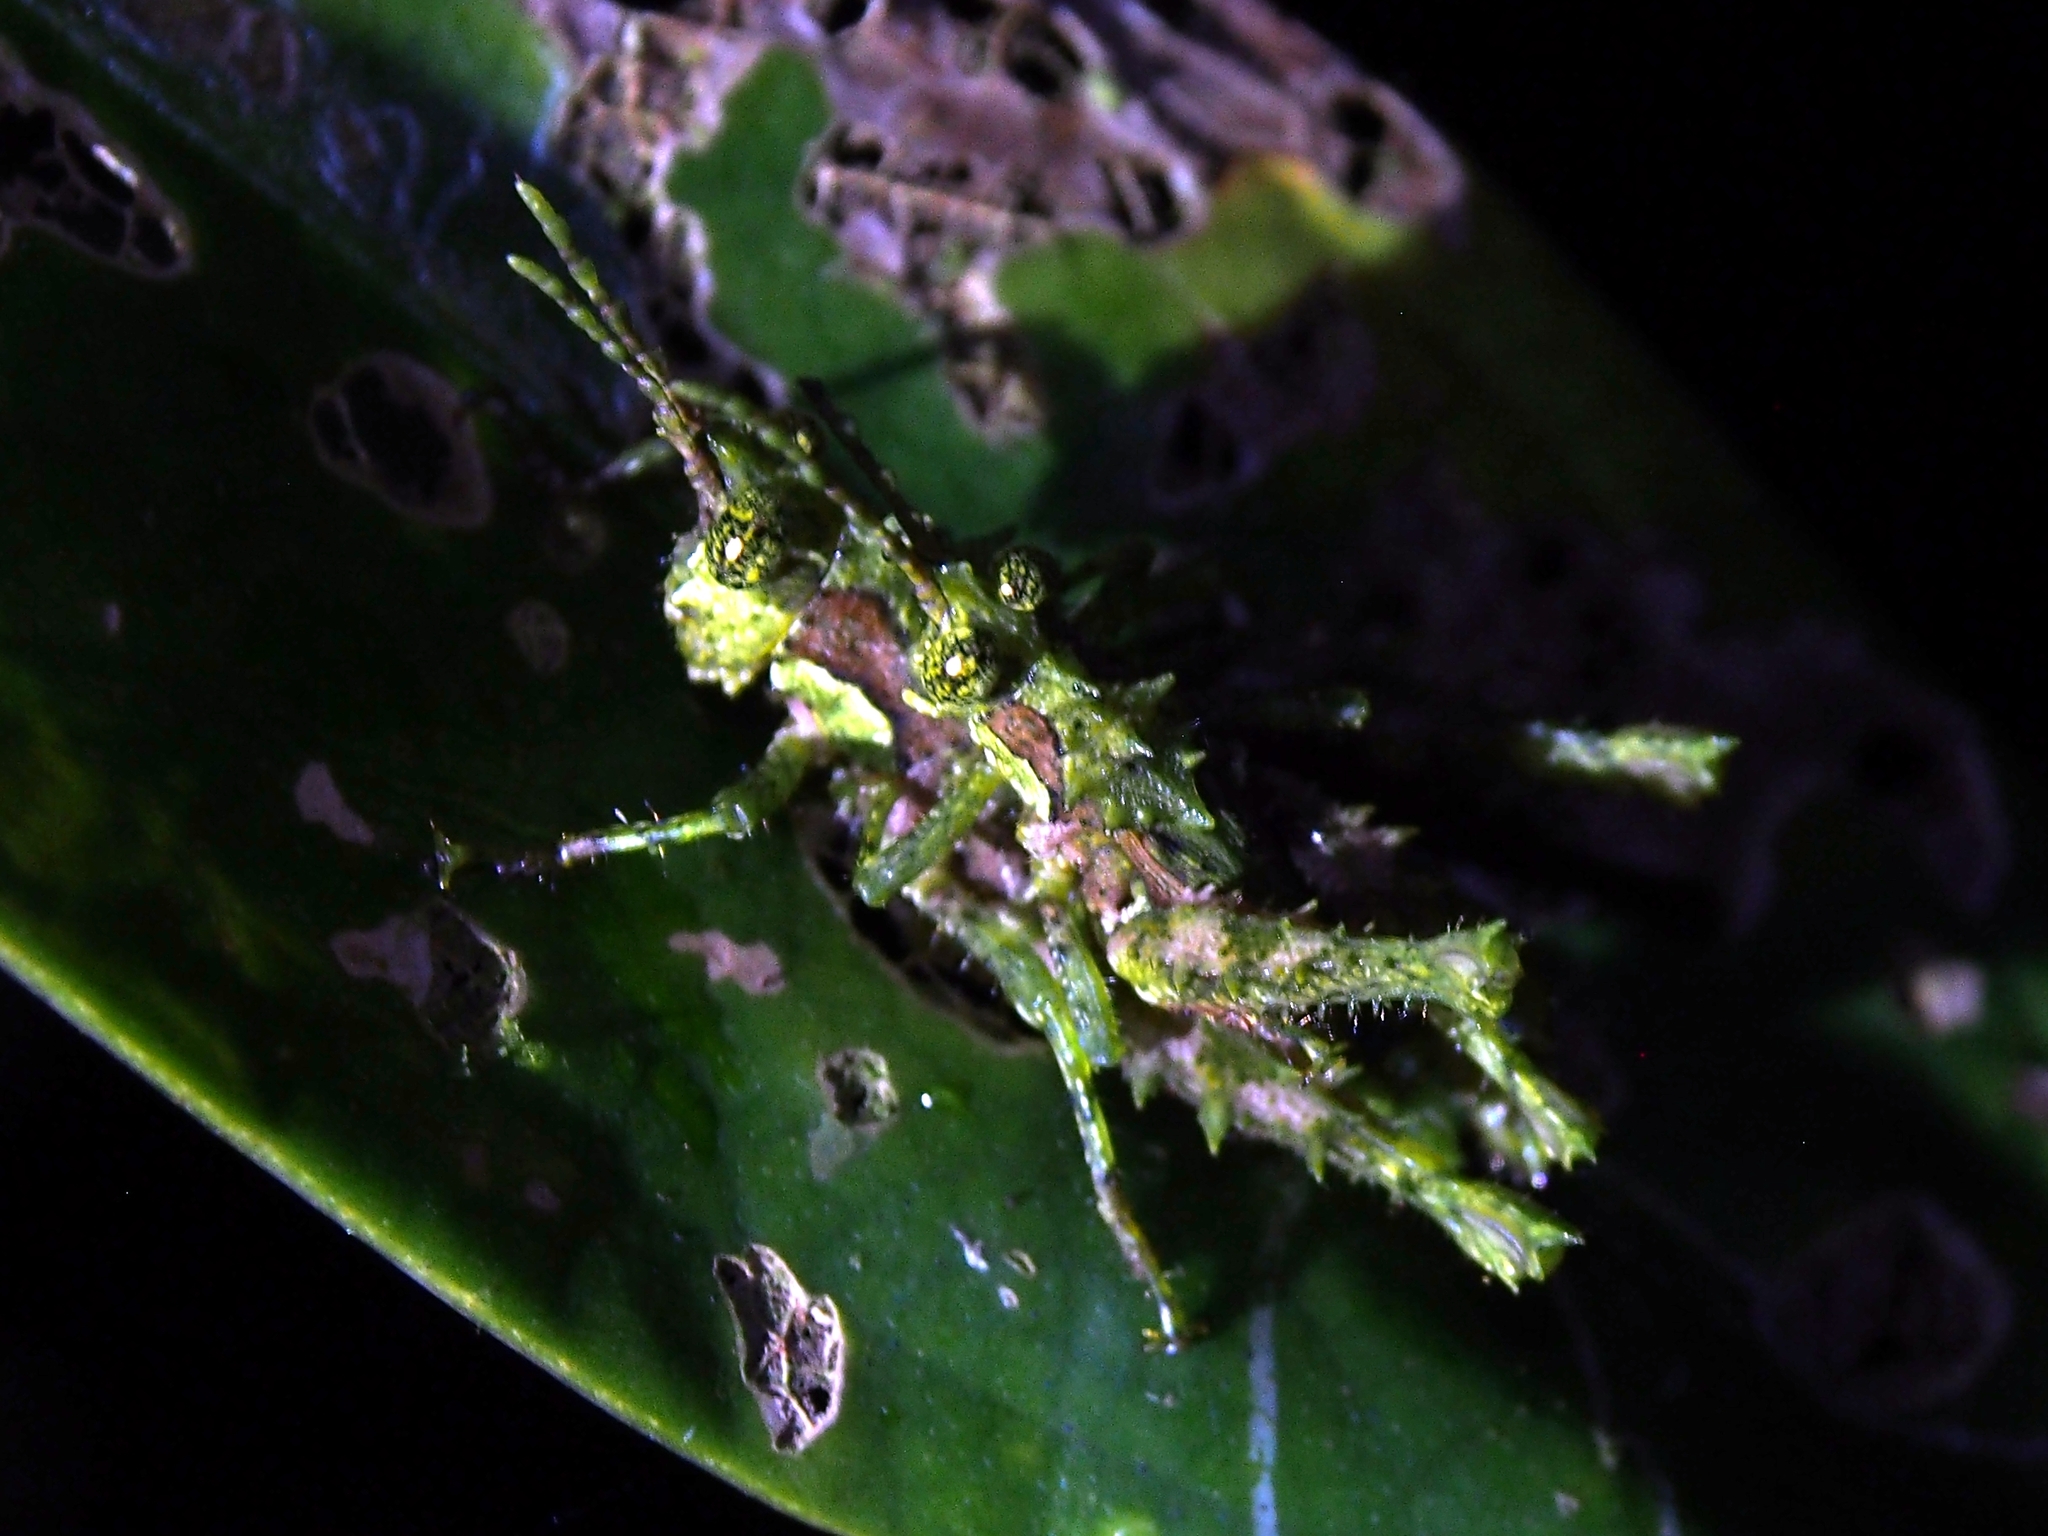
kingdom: Animalia
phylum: Arthropoda
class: Insecta
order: Orthoptera
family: Acrididae
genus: Nicarchus
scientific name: Nicarchus erinaceus
